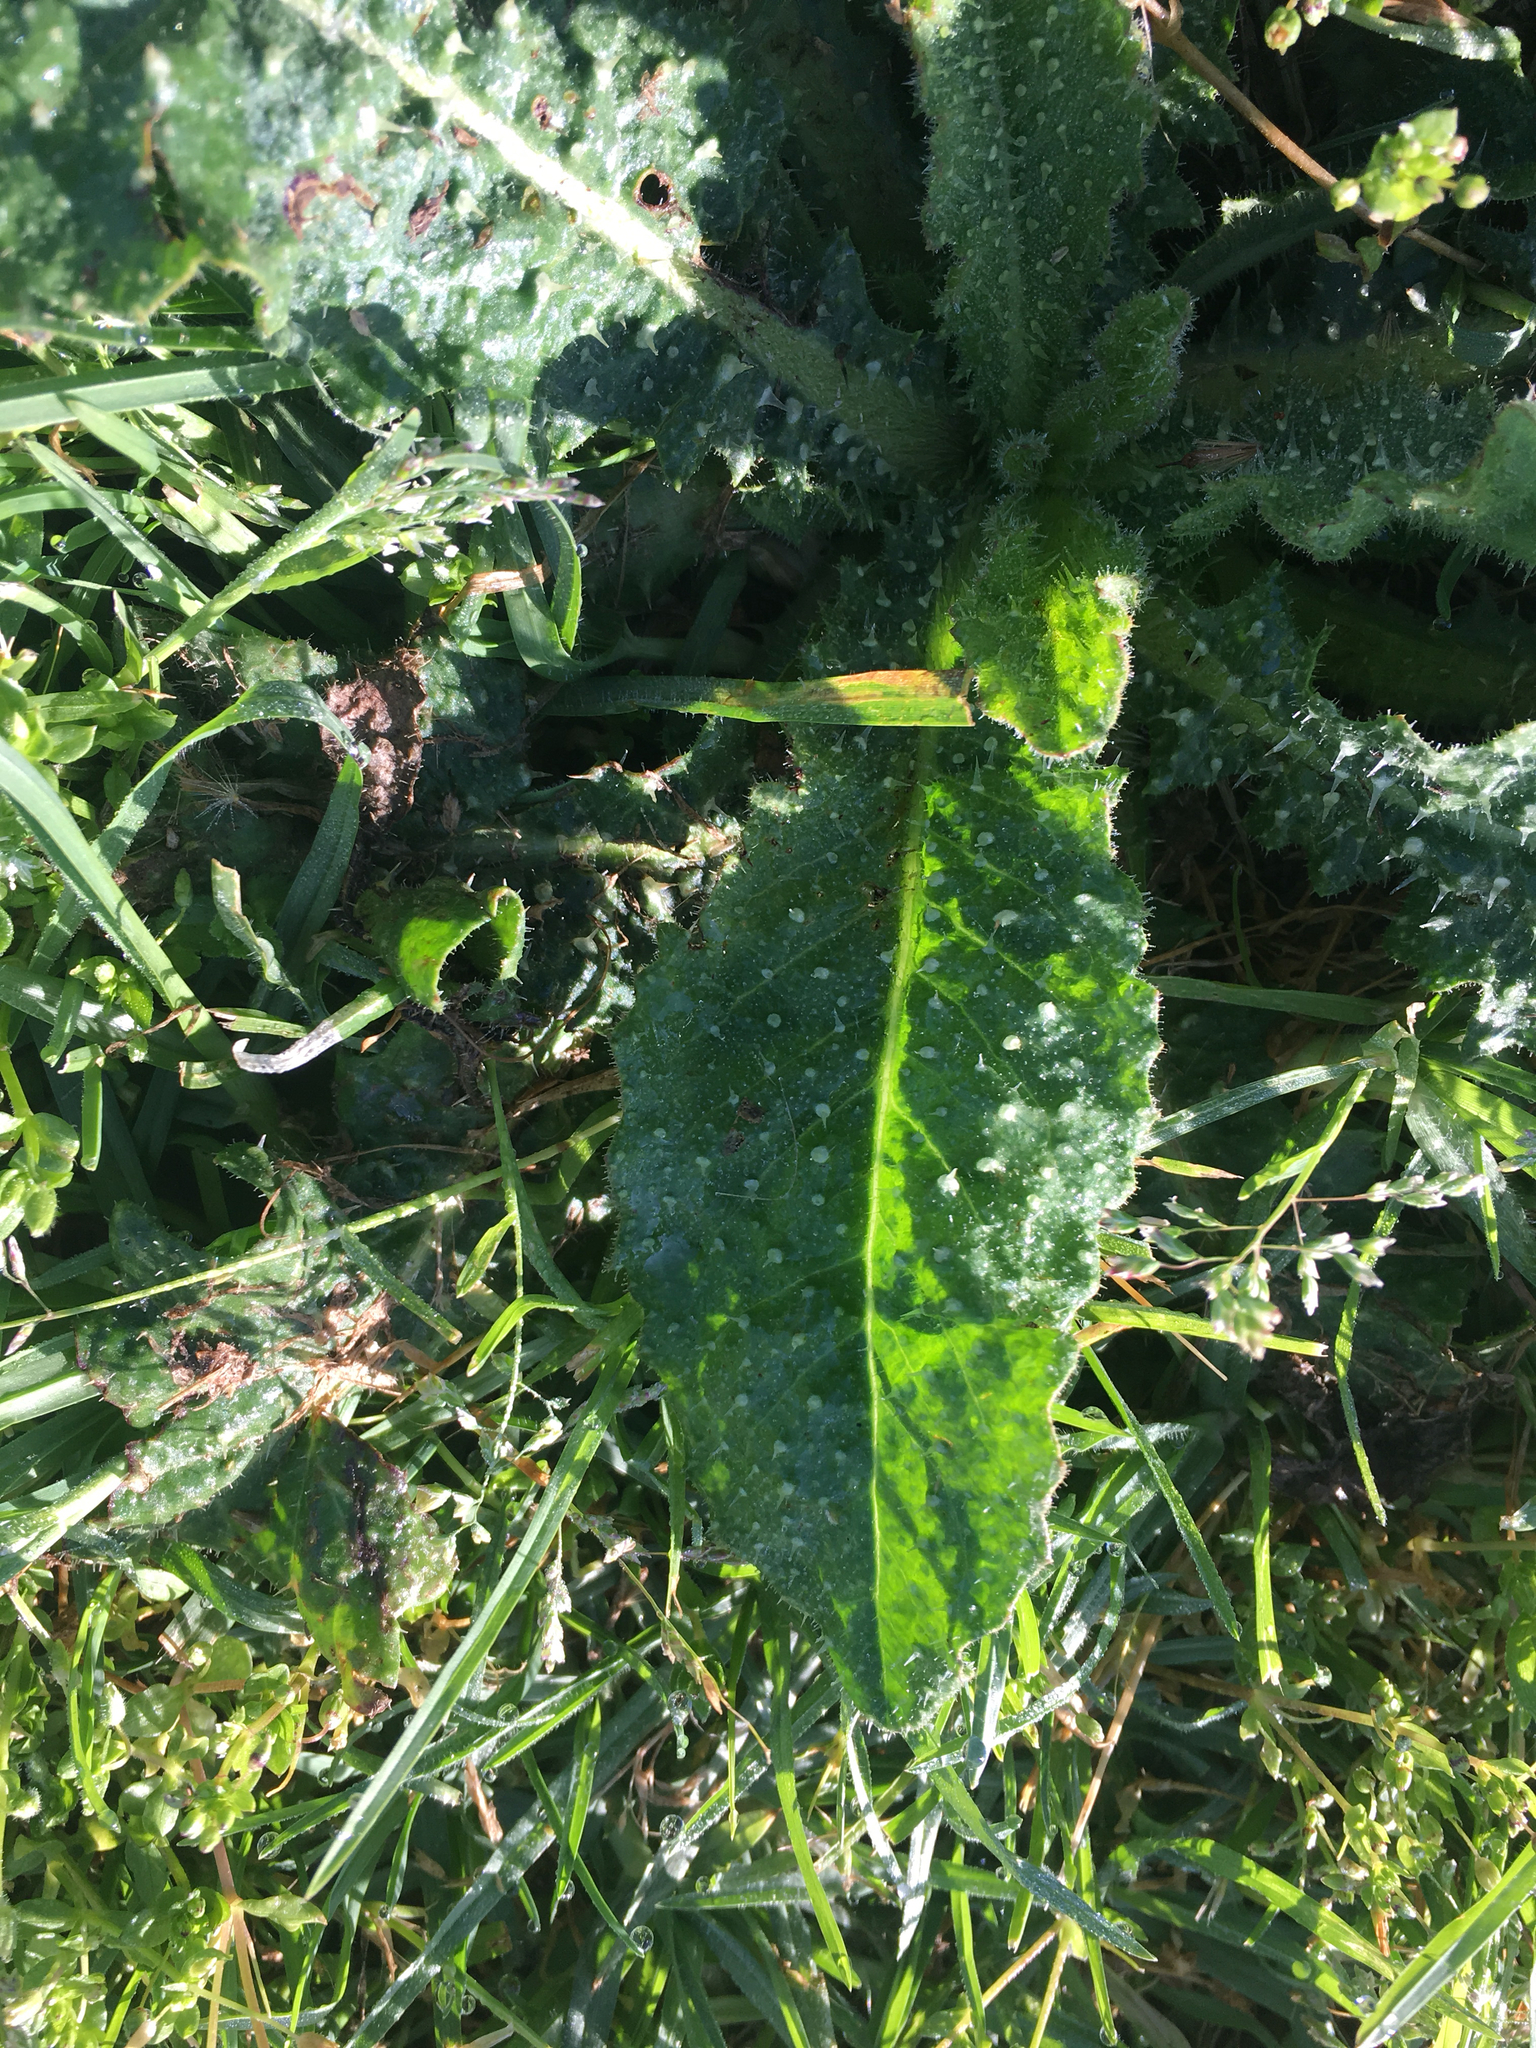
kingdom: Plantae
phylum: Tracheophyta
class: Magnoliopsida
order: Asterales
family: Asteraceae
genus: Helminthotheca
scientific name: Helminthotheca echioides
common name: Ox-tongue
